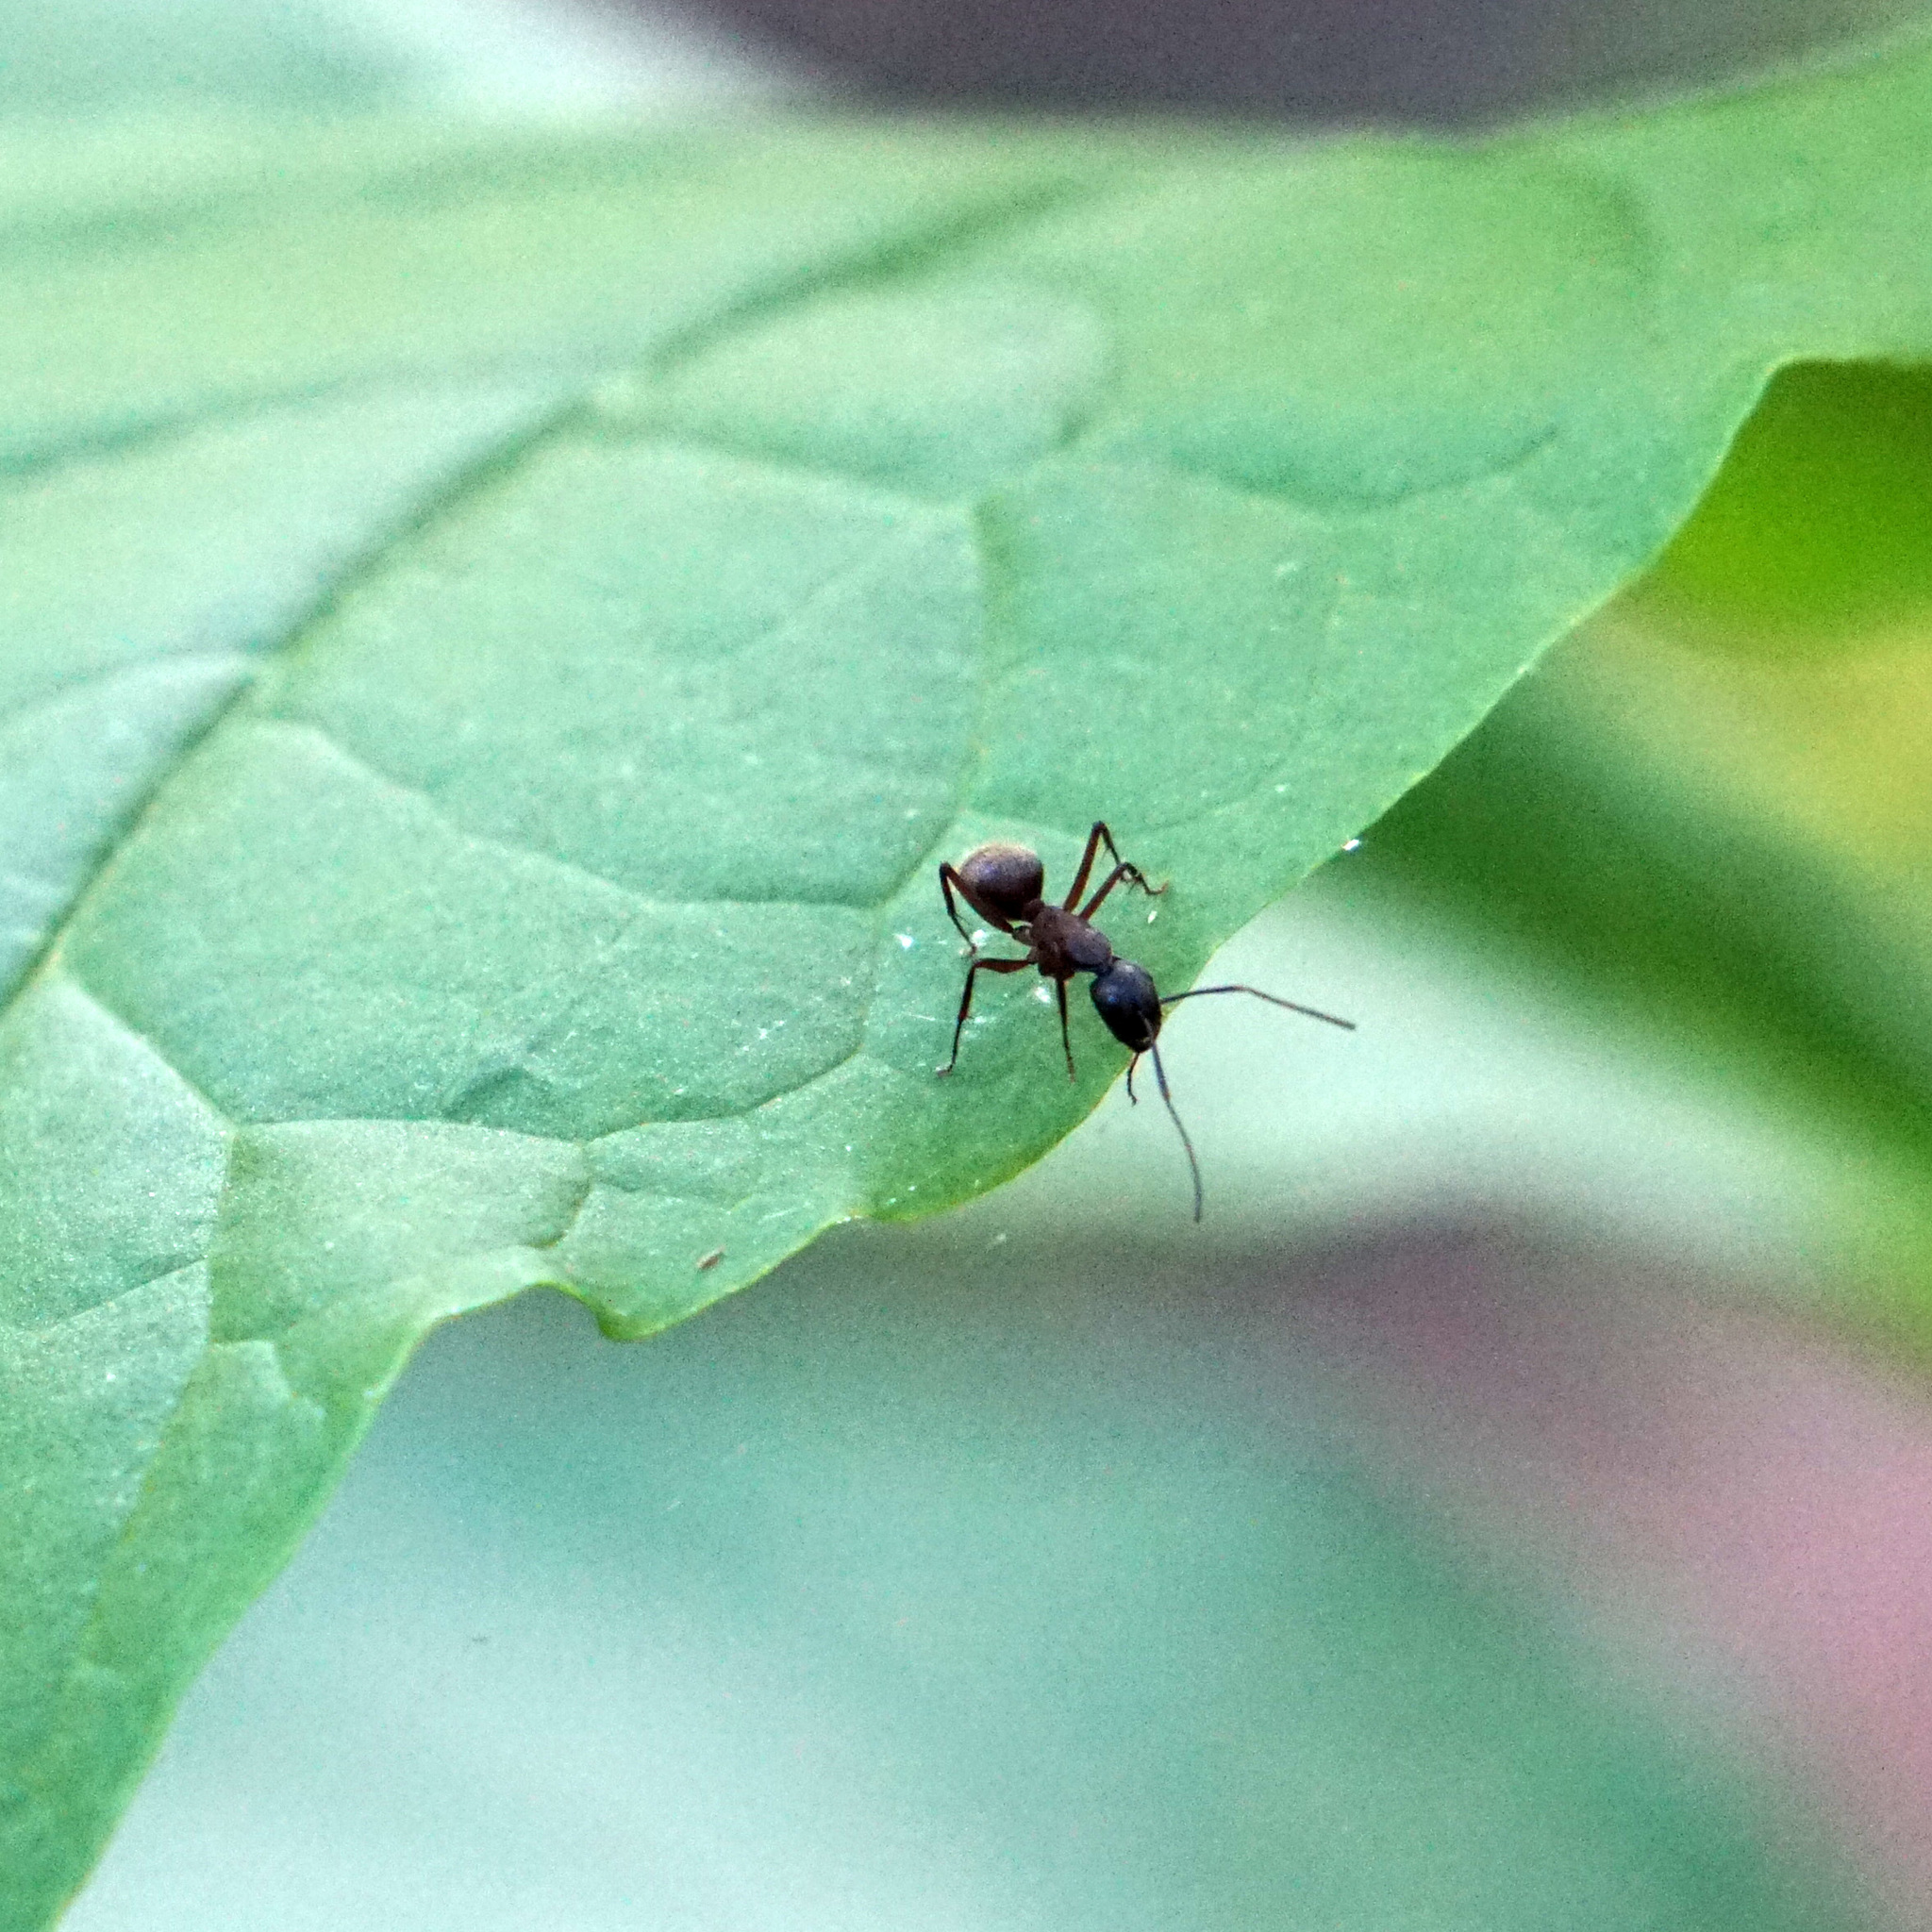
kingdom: Animalia
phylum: Arthropoda
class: Insecta
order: Hymenoptera
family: Formicidae
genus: Camponotus
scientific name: Camponotus chromaiodes
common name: Red carpenter ant
